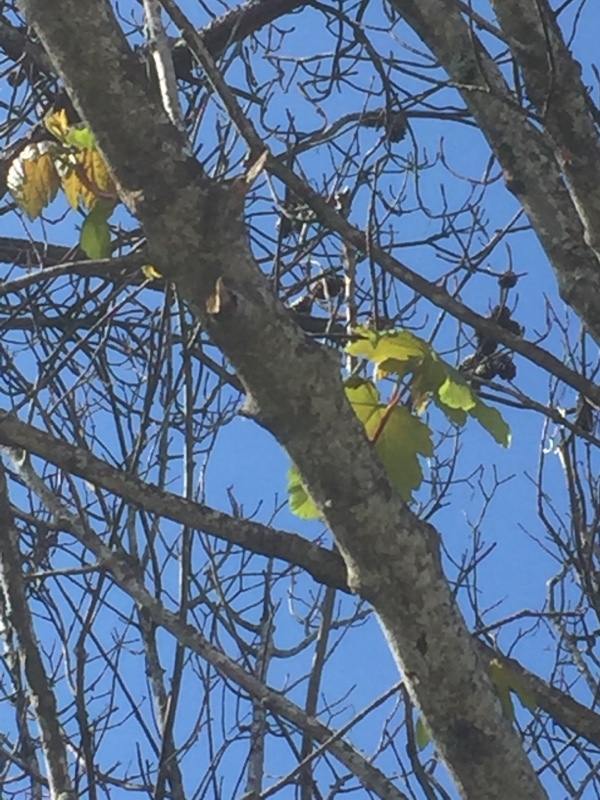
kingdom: Plantae
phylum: Tracheophyta
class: Magnoliopsida
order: Sapindales
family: Sapindaceae
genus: Acer
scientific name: Acer pseudoplatanus
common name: Sycamore
